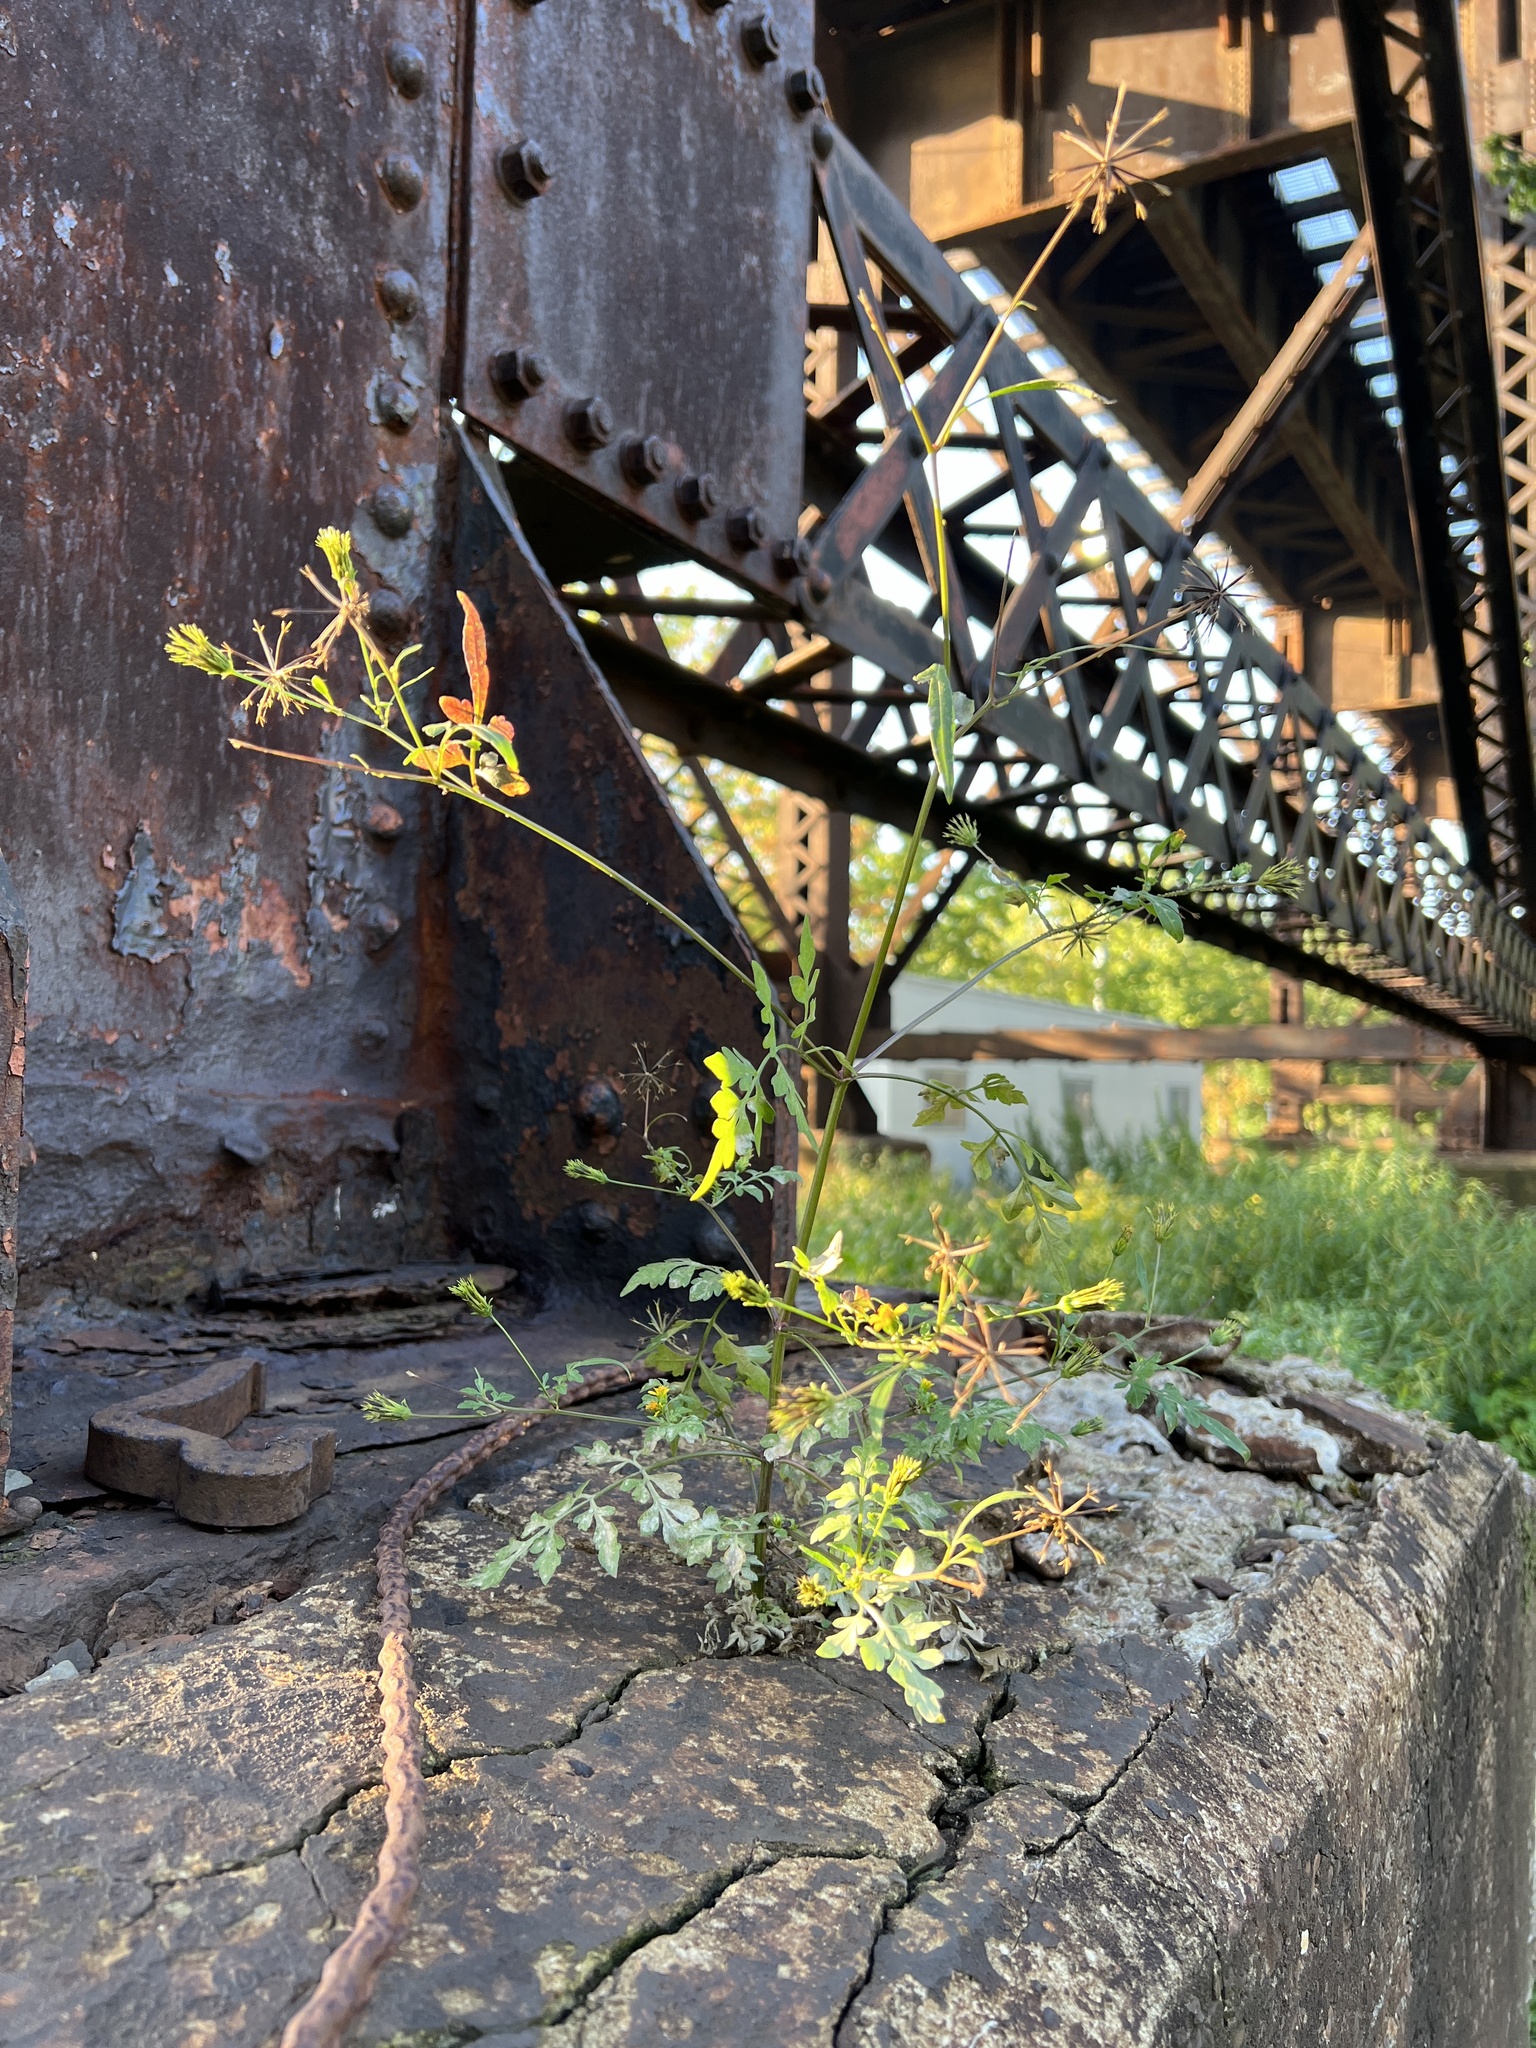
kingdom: Plantae
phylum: Tracheophyta
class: Magnoliopsida
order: Asterales
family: Asteraceae
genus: Bidens
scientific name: Bidens bipinnata
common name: Spanish-needles
